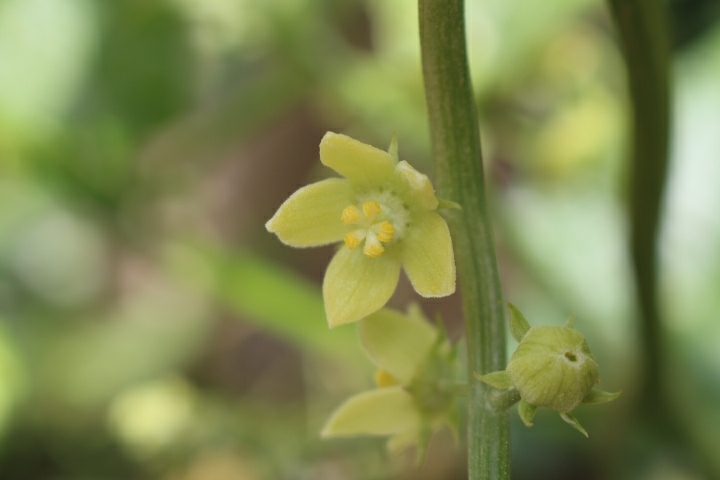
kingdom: Plantae
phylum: Tracheophyta
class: Magnoliopsida
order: Cucurbitales
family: Cucurbitaceae
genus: Sechium
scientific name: Sechium edule
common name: Chayote
